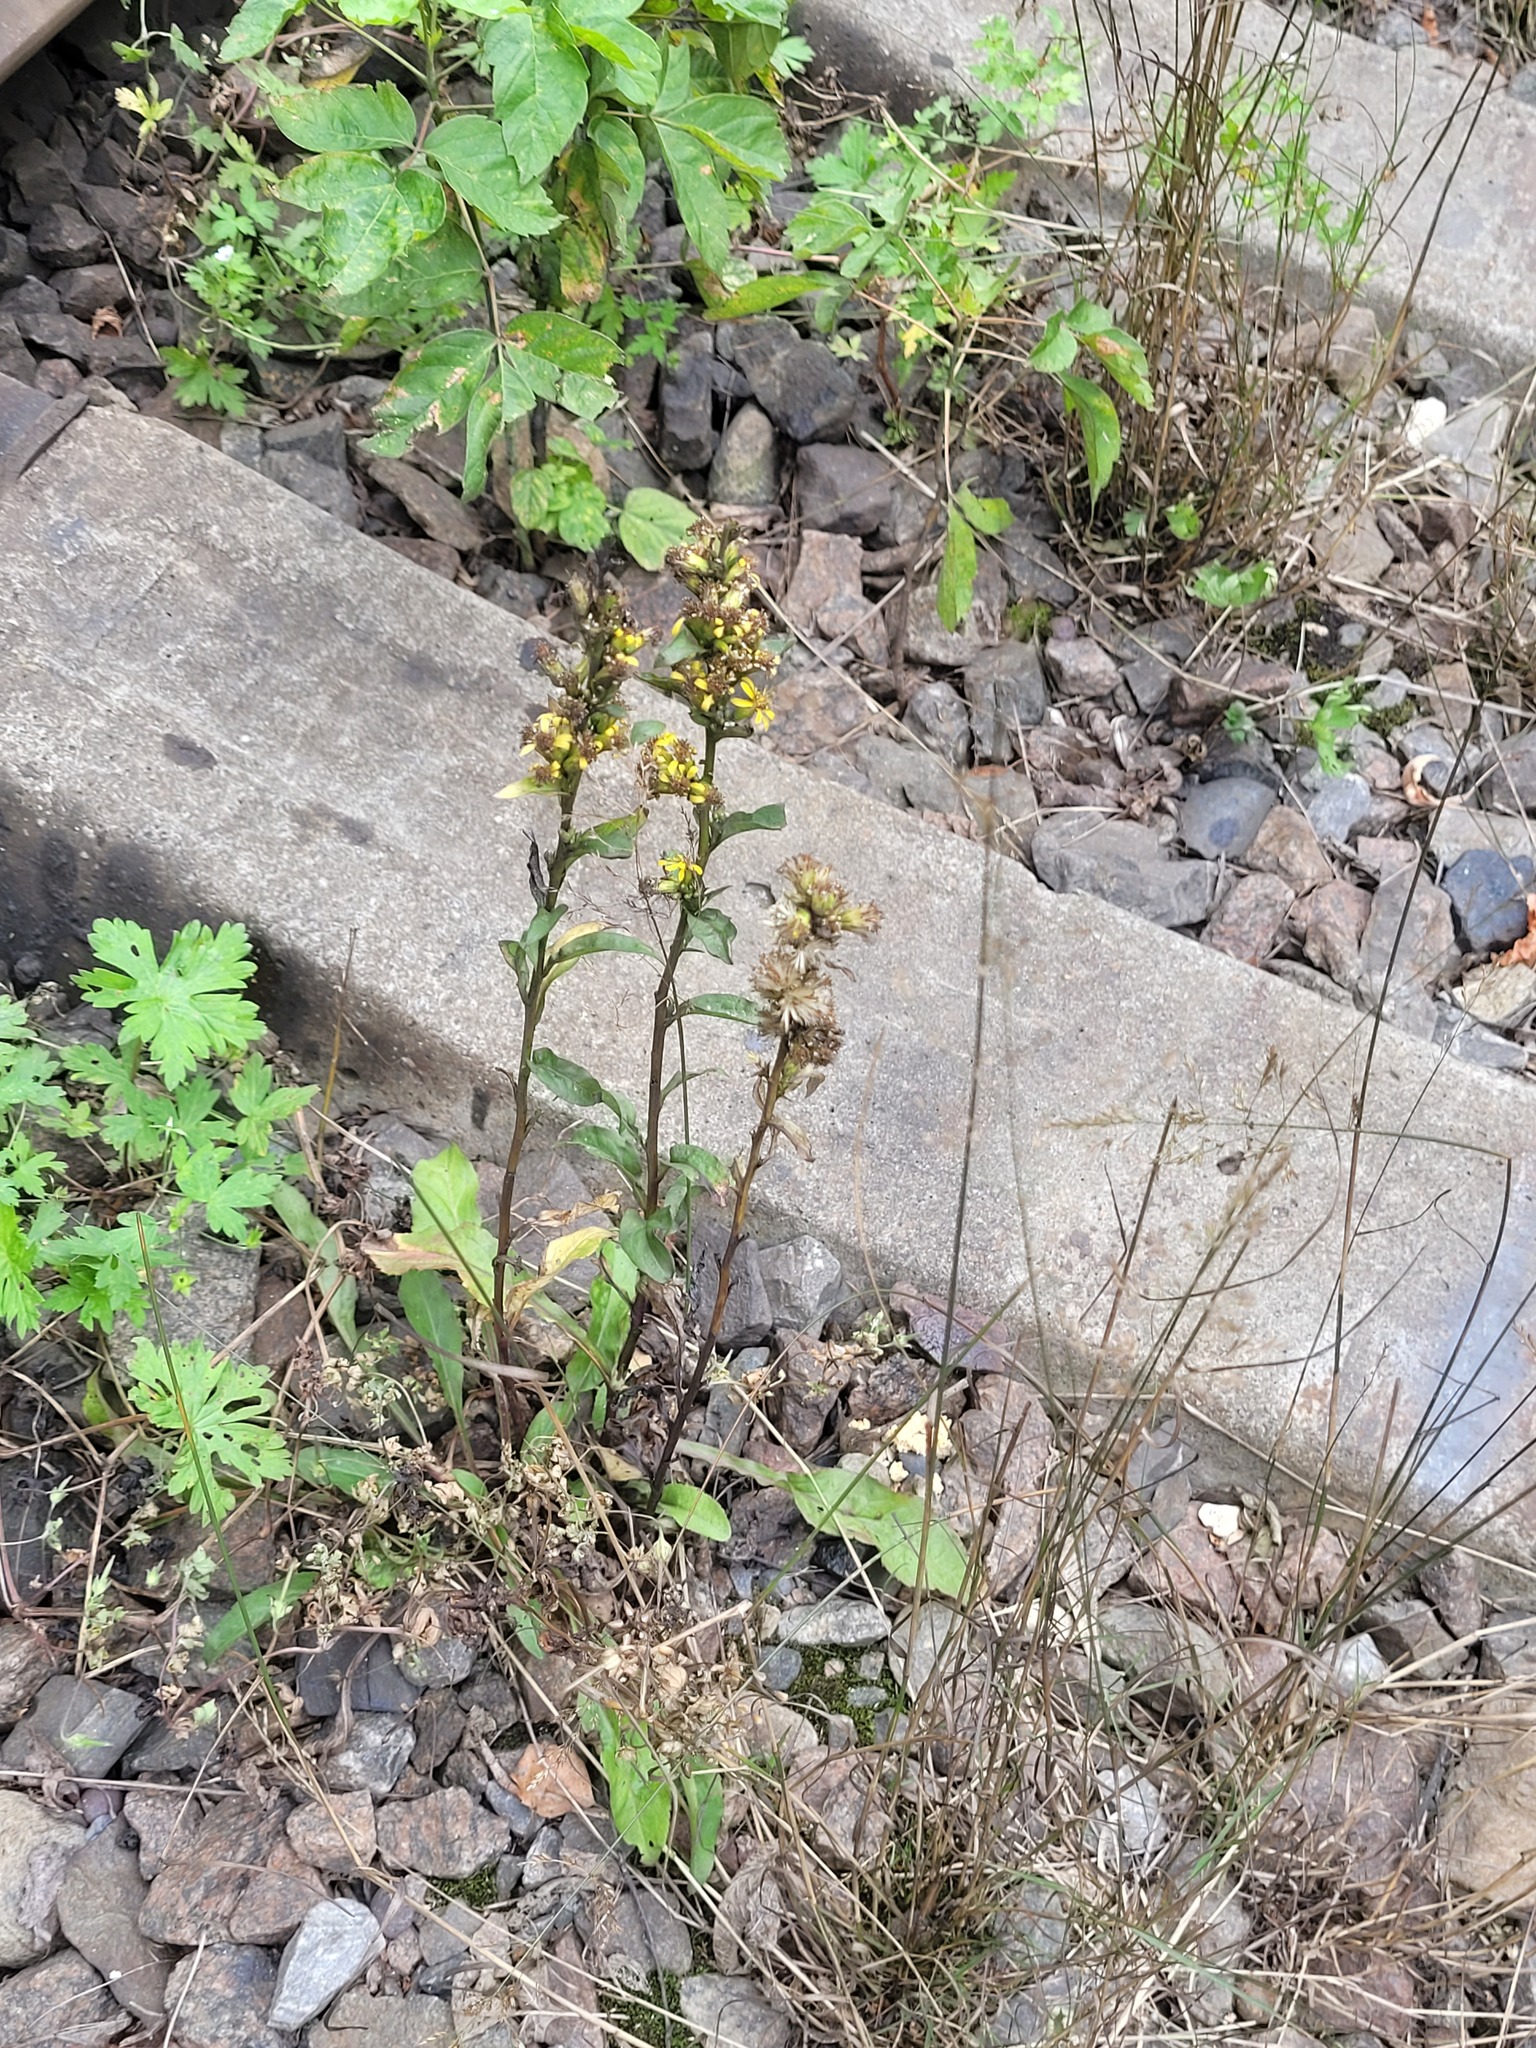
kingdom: Plantae
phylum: Tracheophyta
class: Magnoliopsida
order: Asterales
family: Asteraceae
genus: Solidago
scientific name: Solidago virgaurea
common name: Goldenrod
